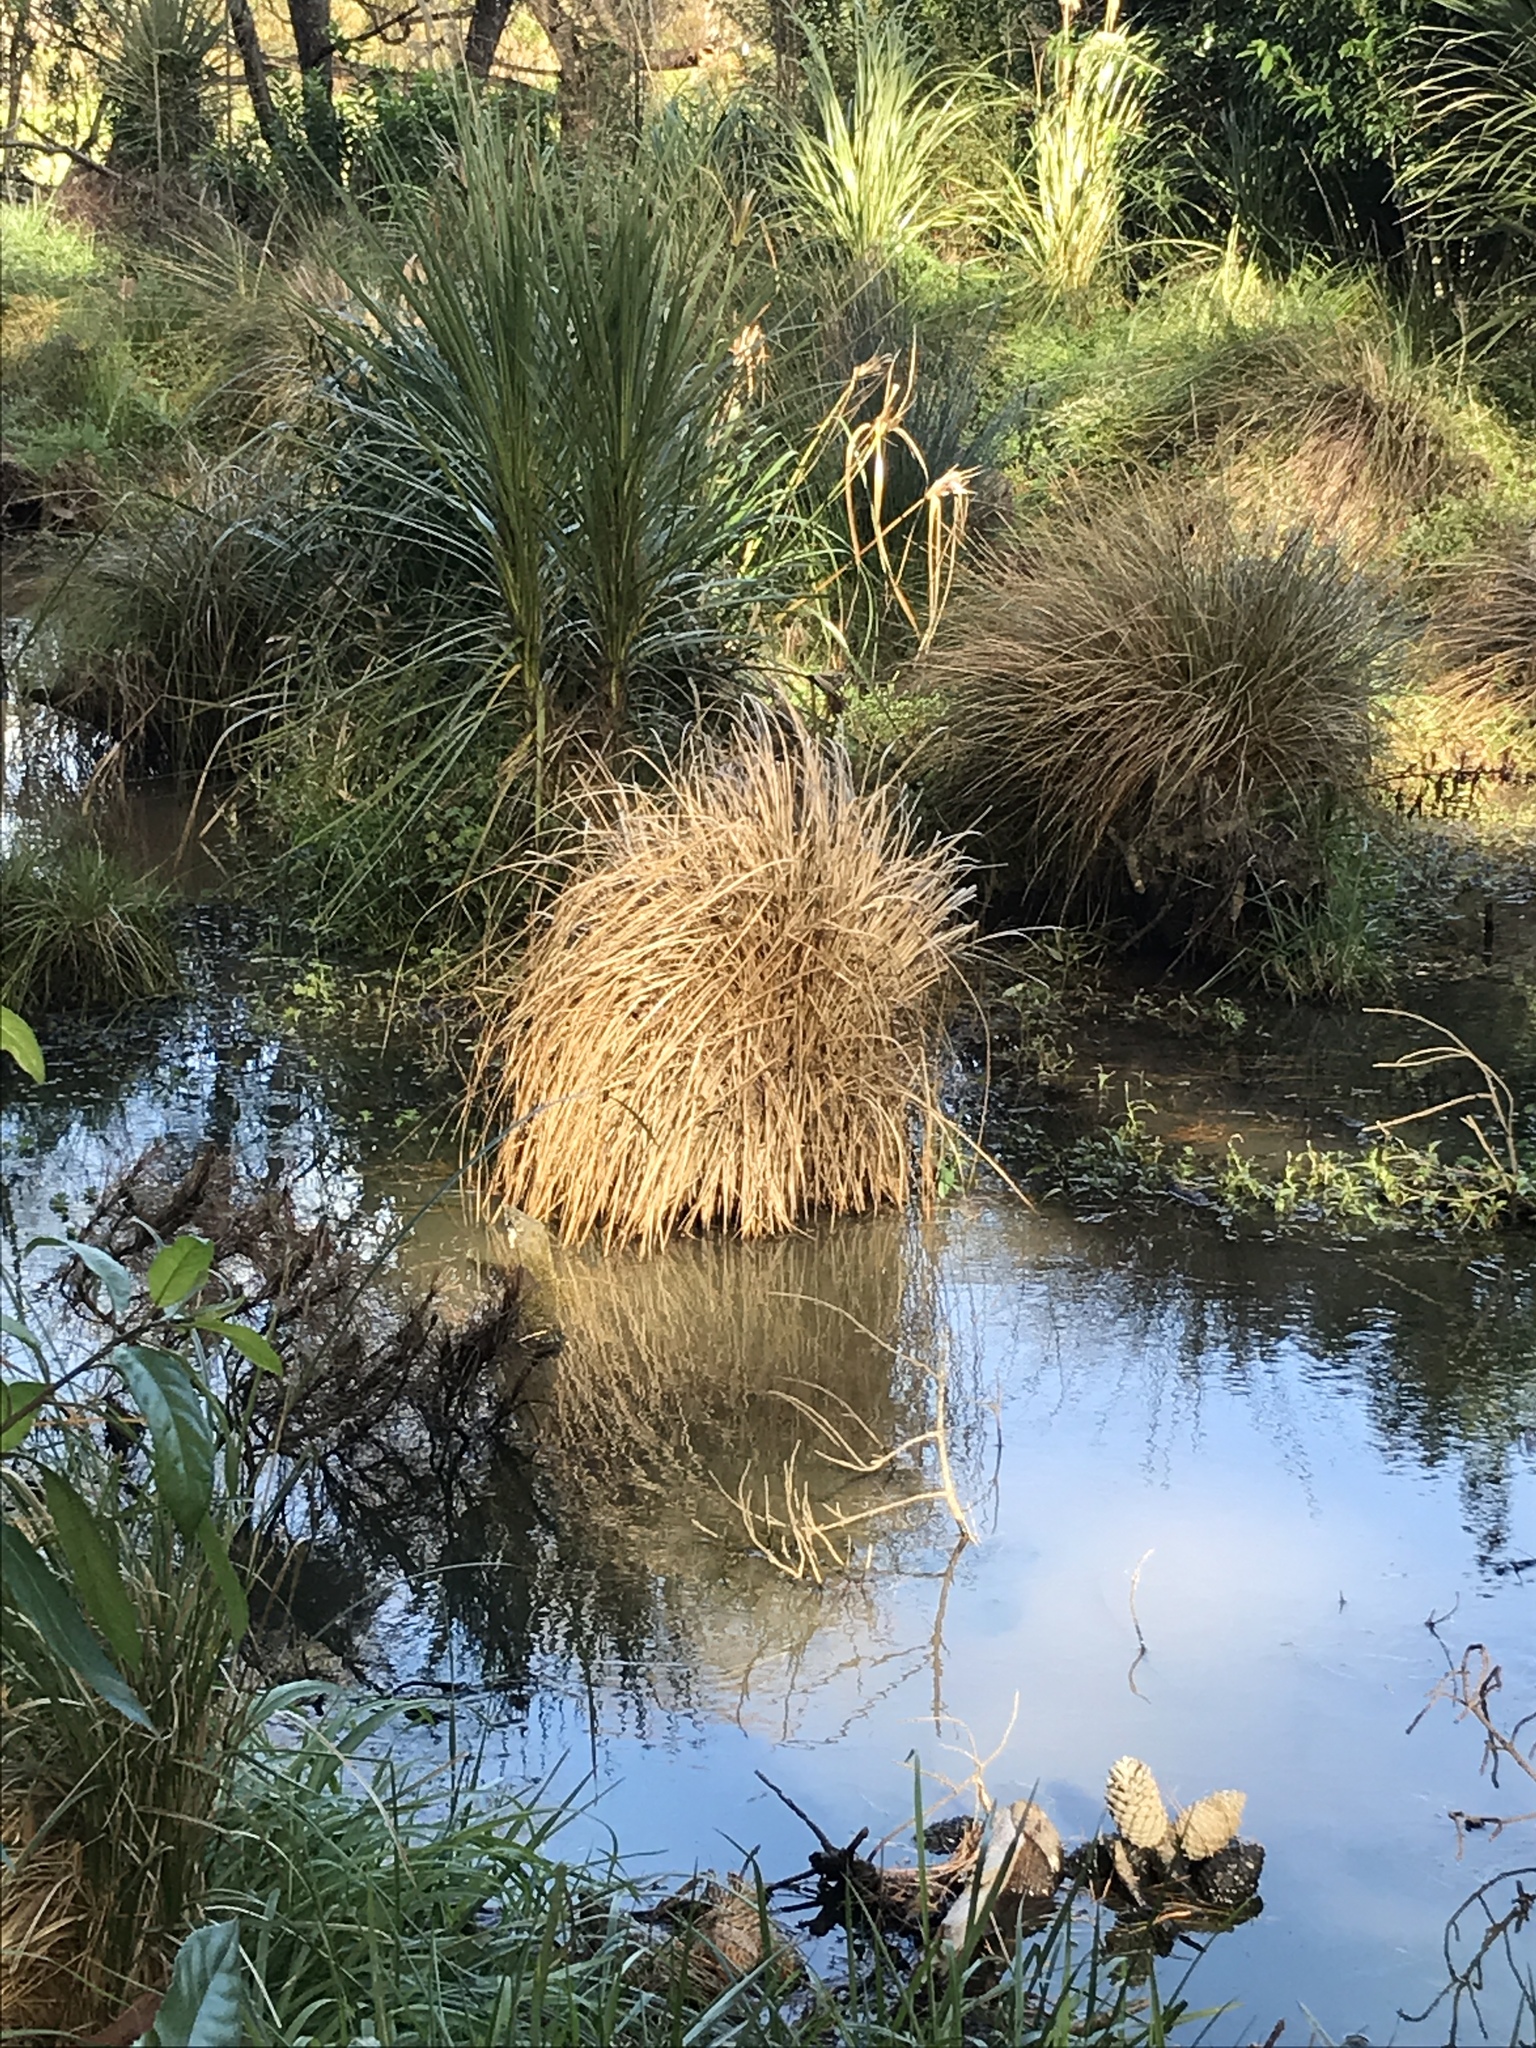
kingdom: Plantae
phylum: Tracheophyta
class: Liliopsida
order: Poales
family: Cyperaceae
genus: Carex
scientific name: Carex secta
